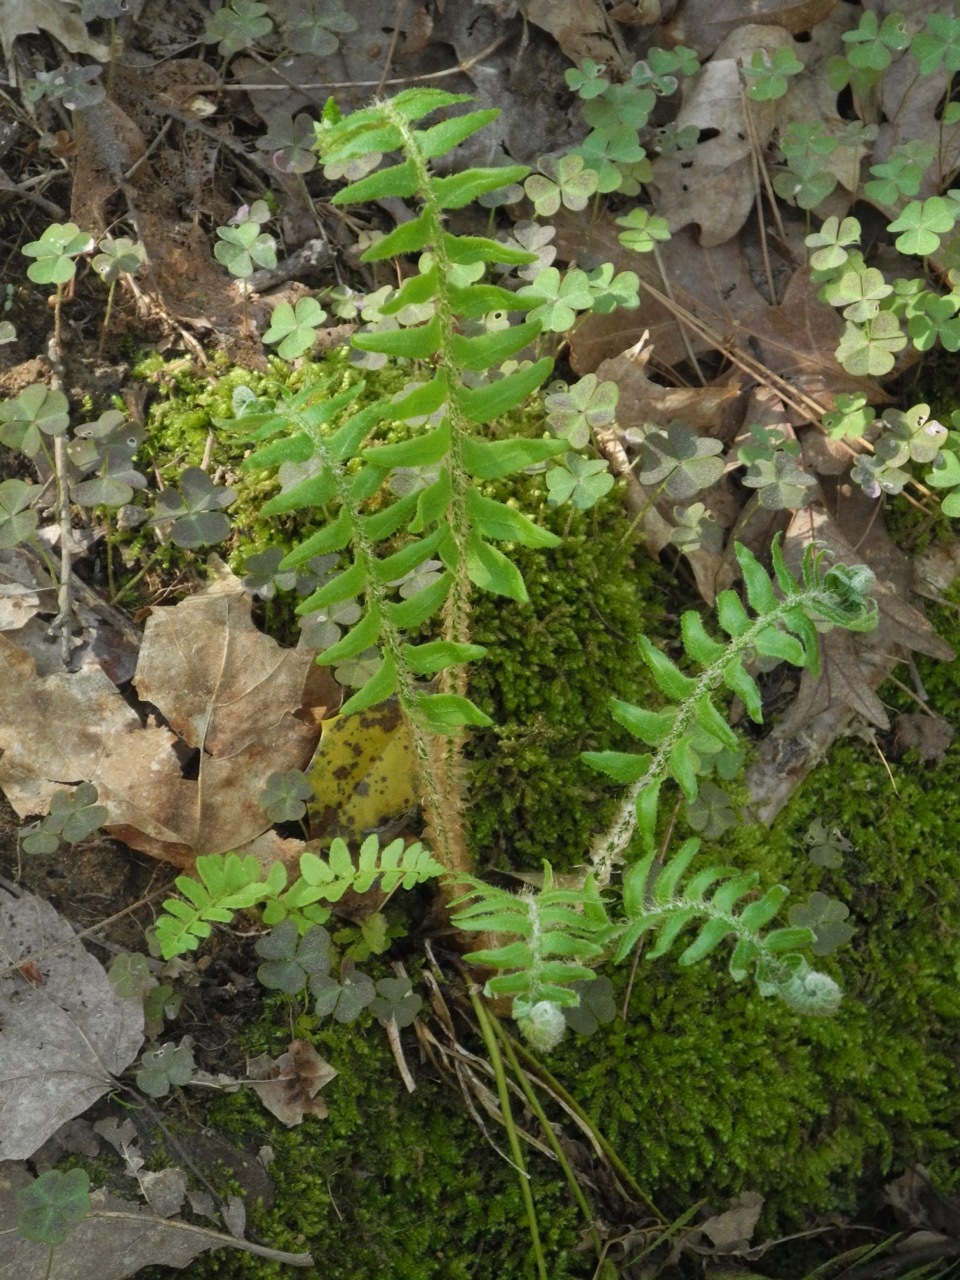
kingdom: Plantae
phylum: Tracheophyta
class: Polypodiopsida
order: Polypodiales
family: Dryopteridaceae
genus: Polystichum
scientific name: Polystichum acrostichoides
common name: Christmas fern
